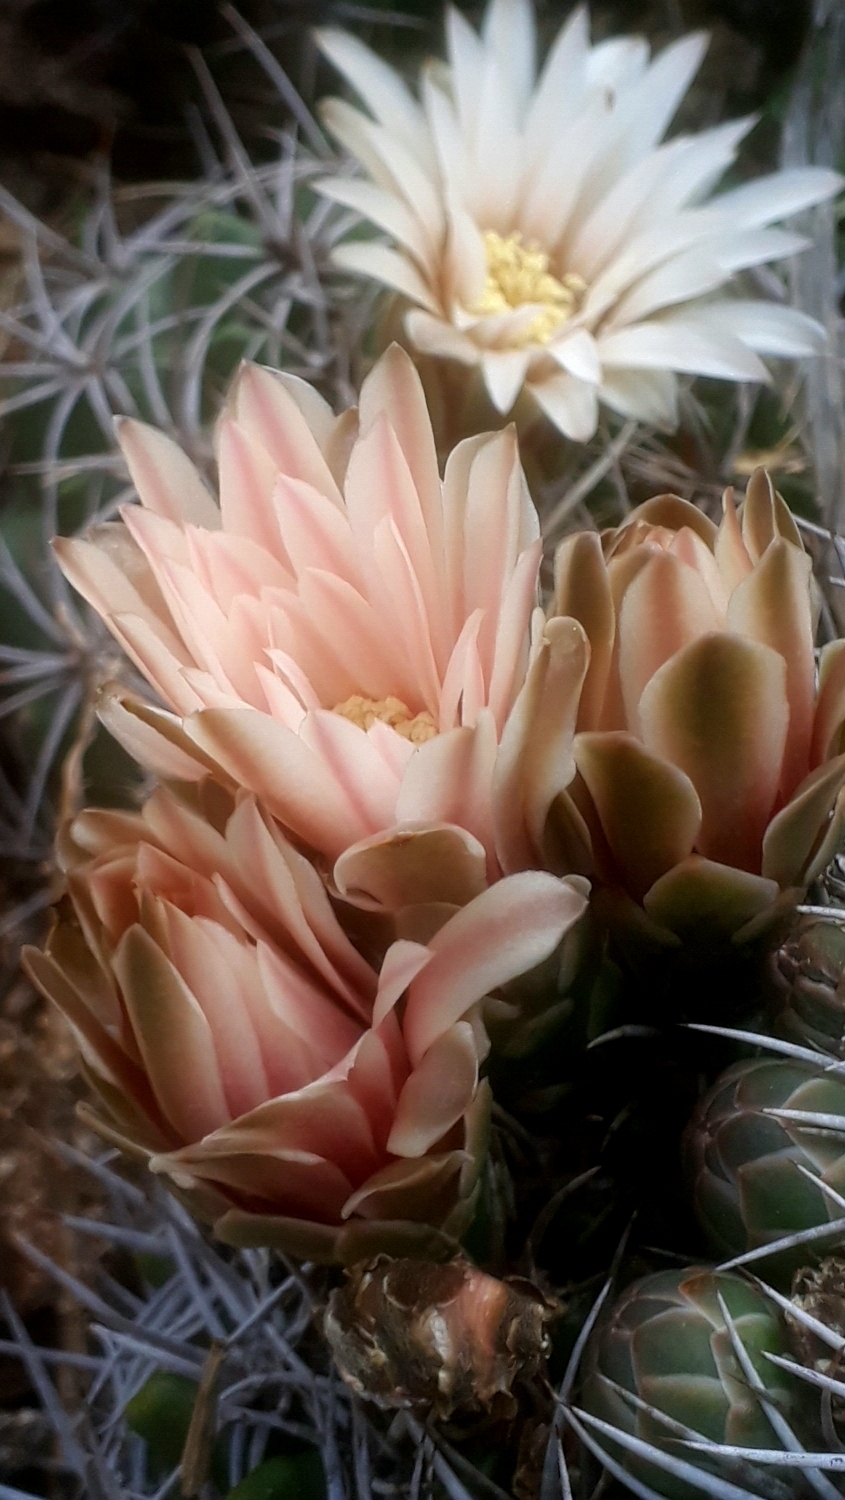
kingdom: Plantae
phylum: Tracheophyta
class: Magnoliopsida
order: Caryophyllales
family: Cactaceae
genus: Gymnocalycium
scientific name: Gymnocalycium mostii
